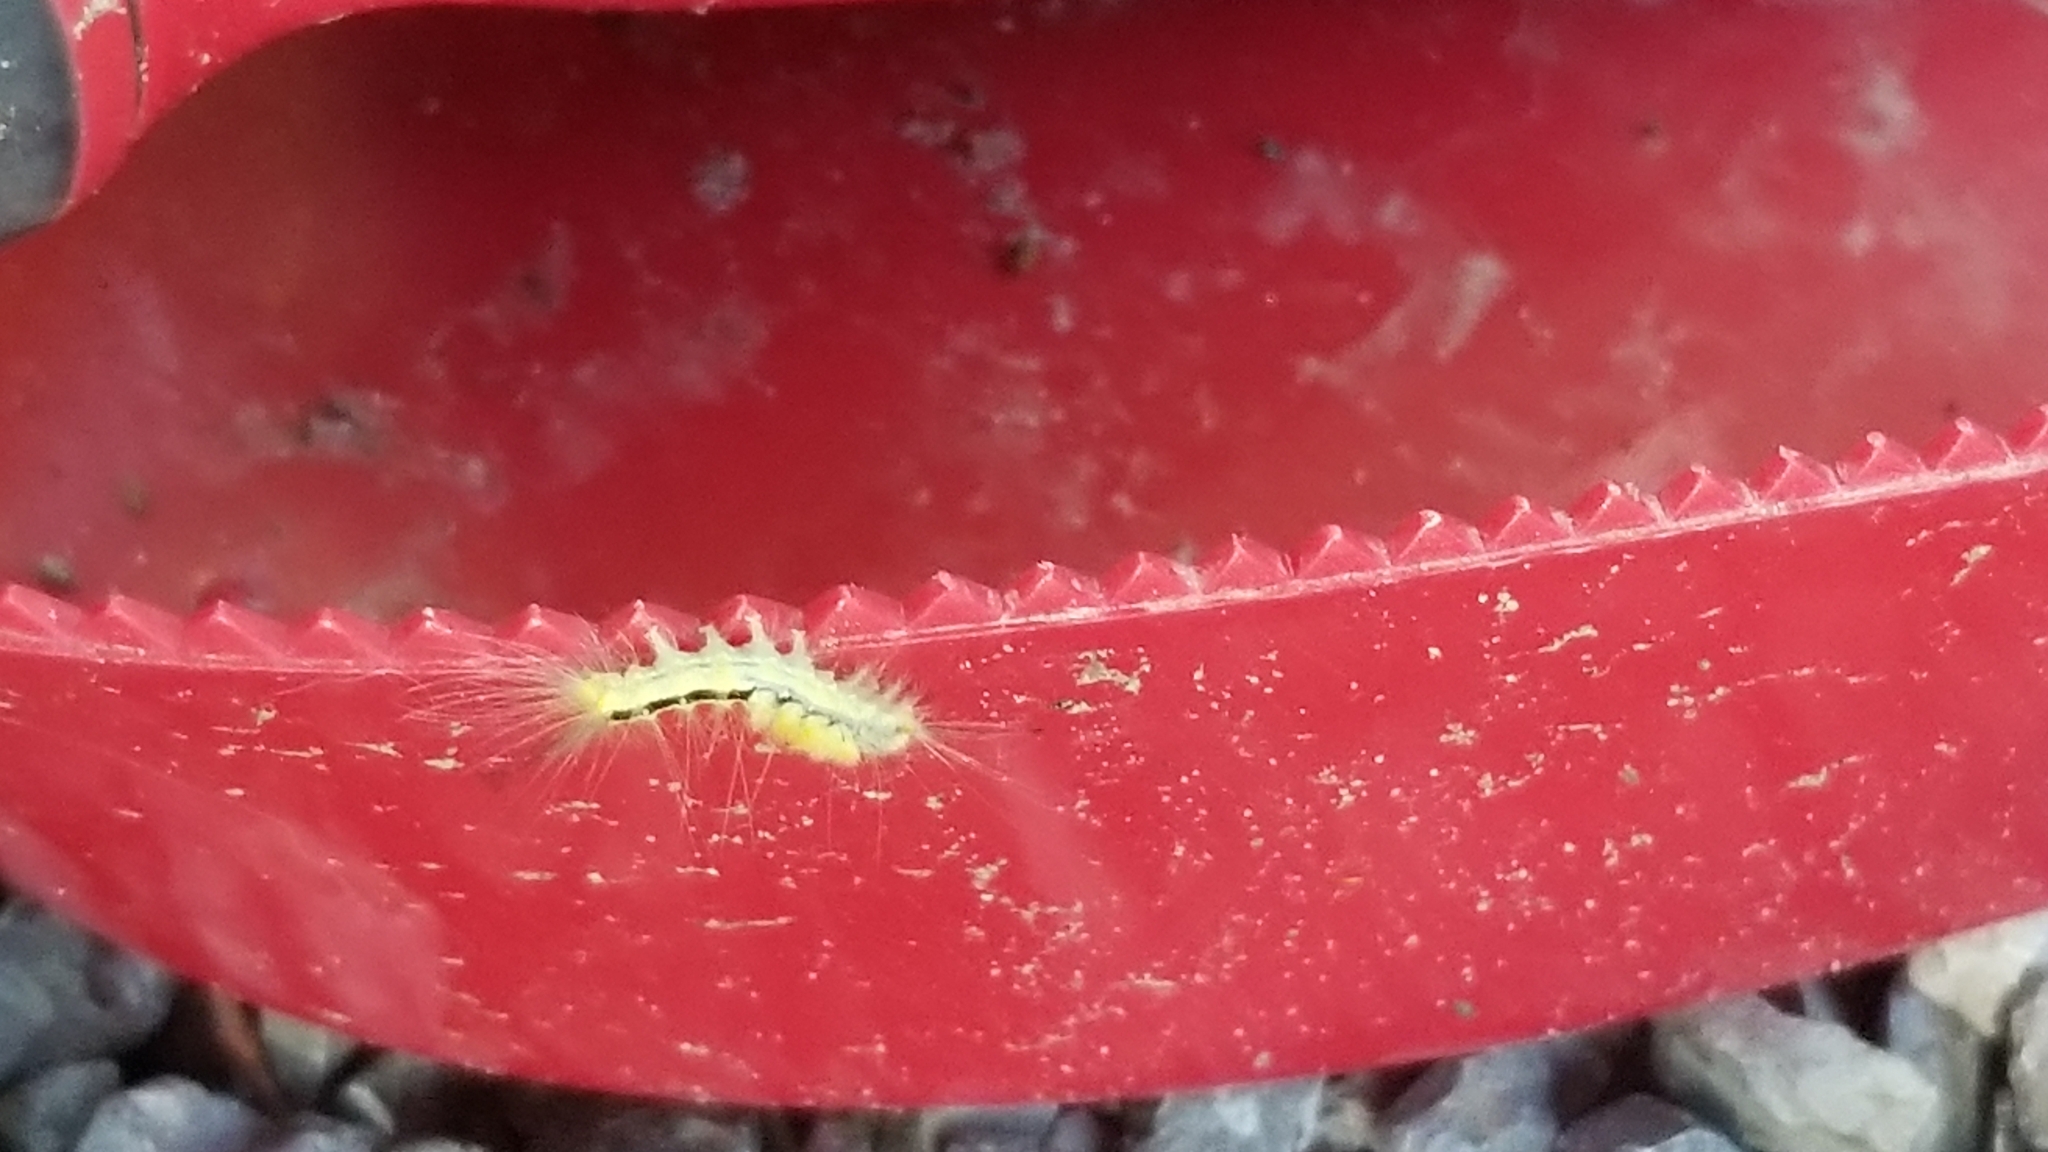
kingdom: Animalia
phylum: Arthropoda
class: Insecta
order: Lepidoptera
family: Erebidae
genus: Orgyia
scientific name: Orgyia definita
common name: Definite tussock moth
